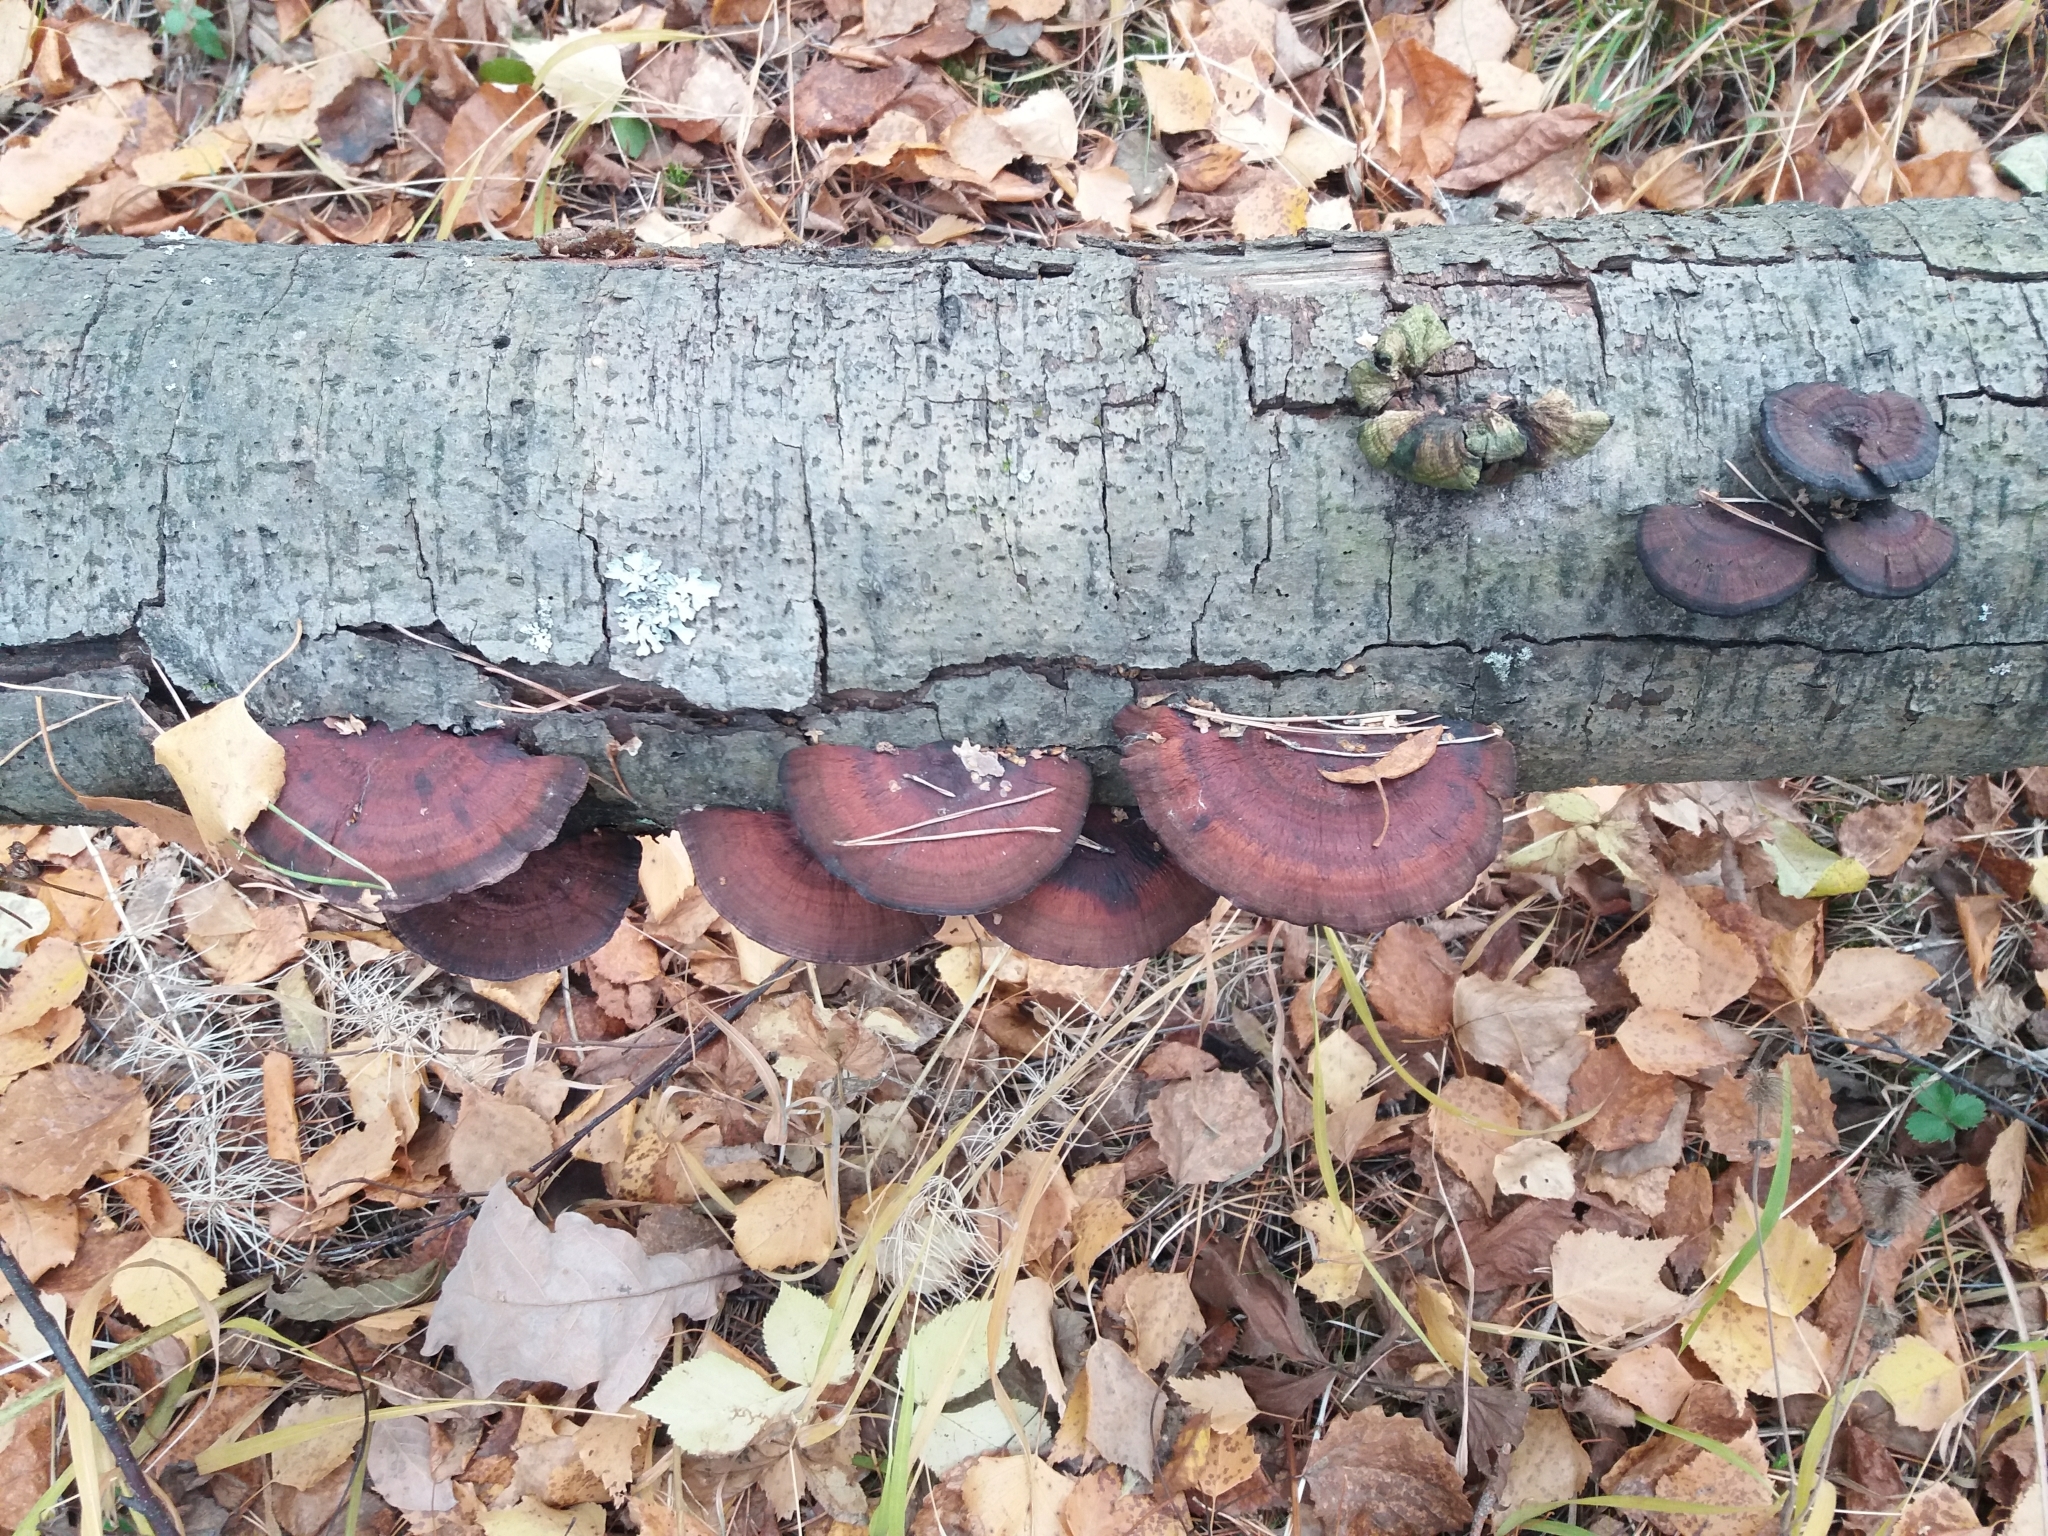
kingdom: Fungi
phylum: Basidiomycota
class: Agaricomycetes
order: Polyporales
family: Polyporaceae
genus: Daedaleopsis
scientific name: Daedaleopsis tricolor
